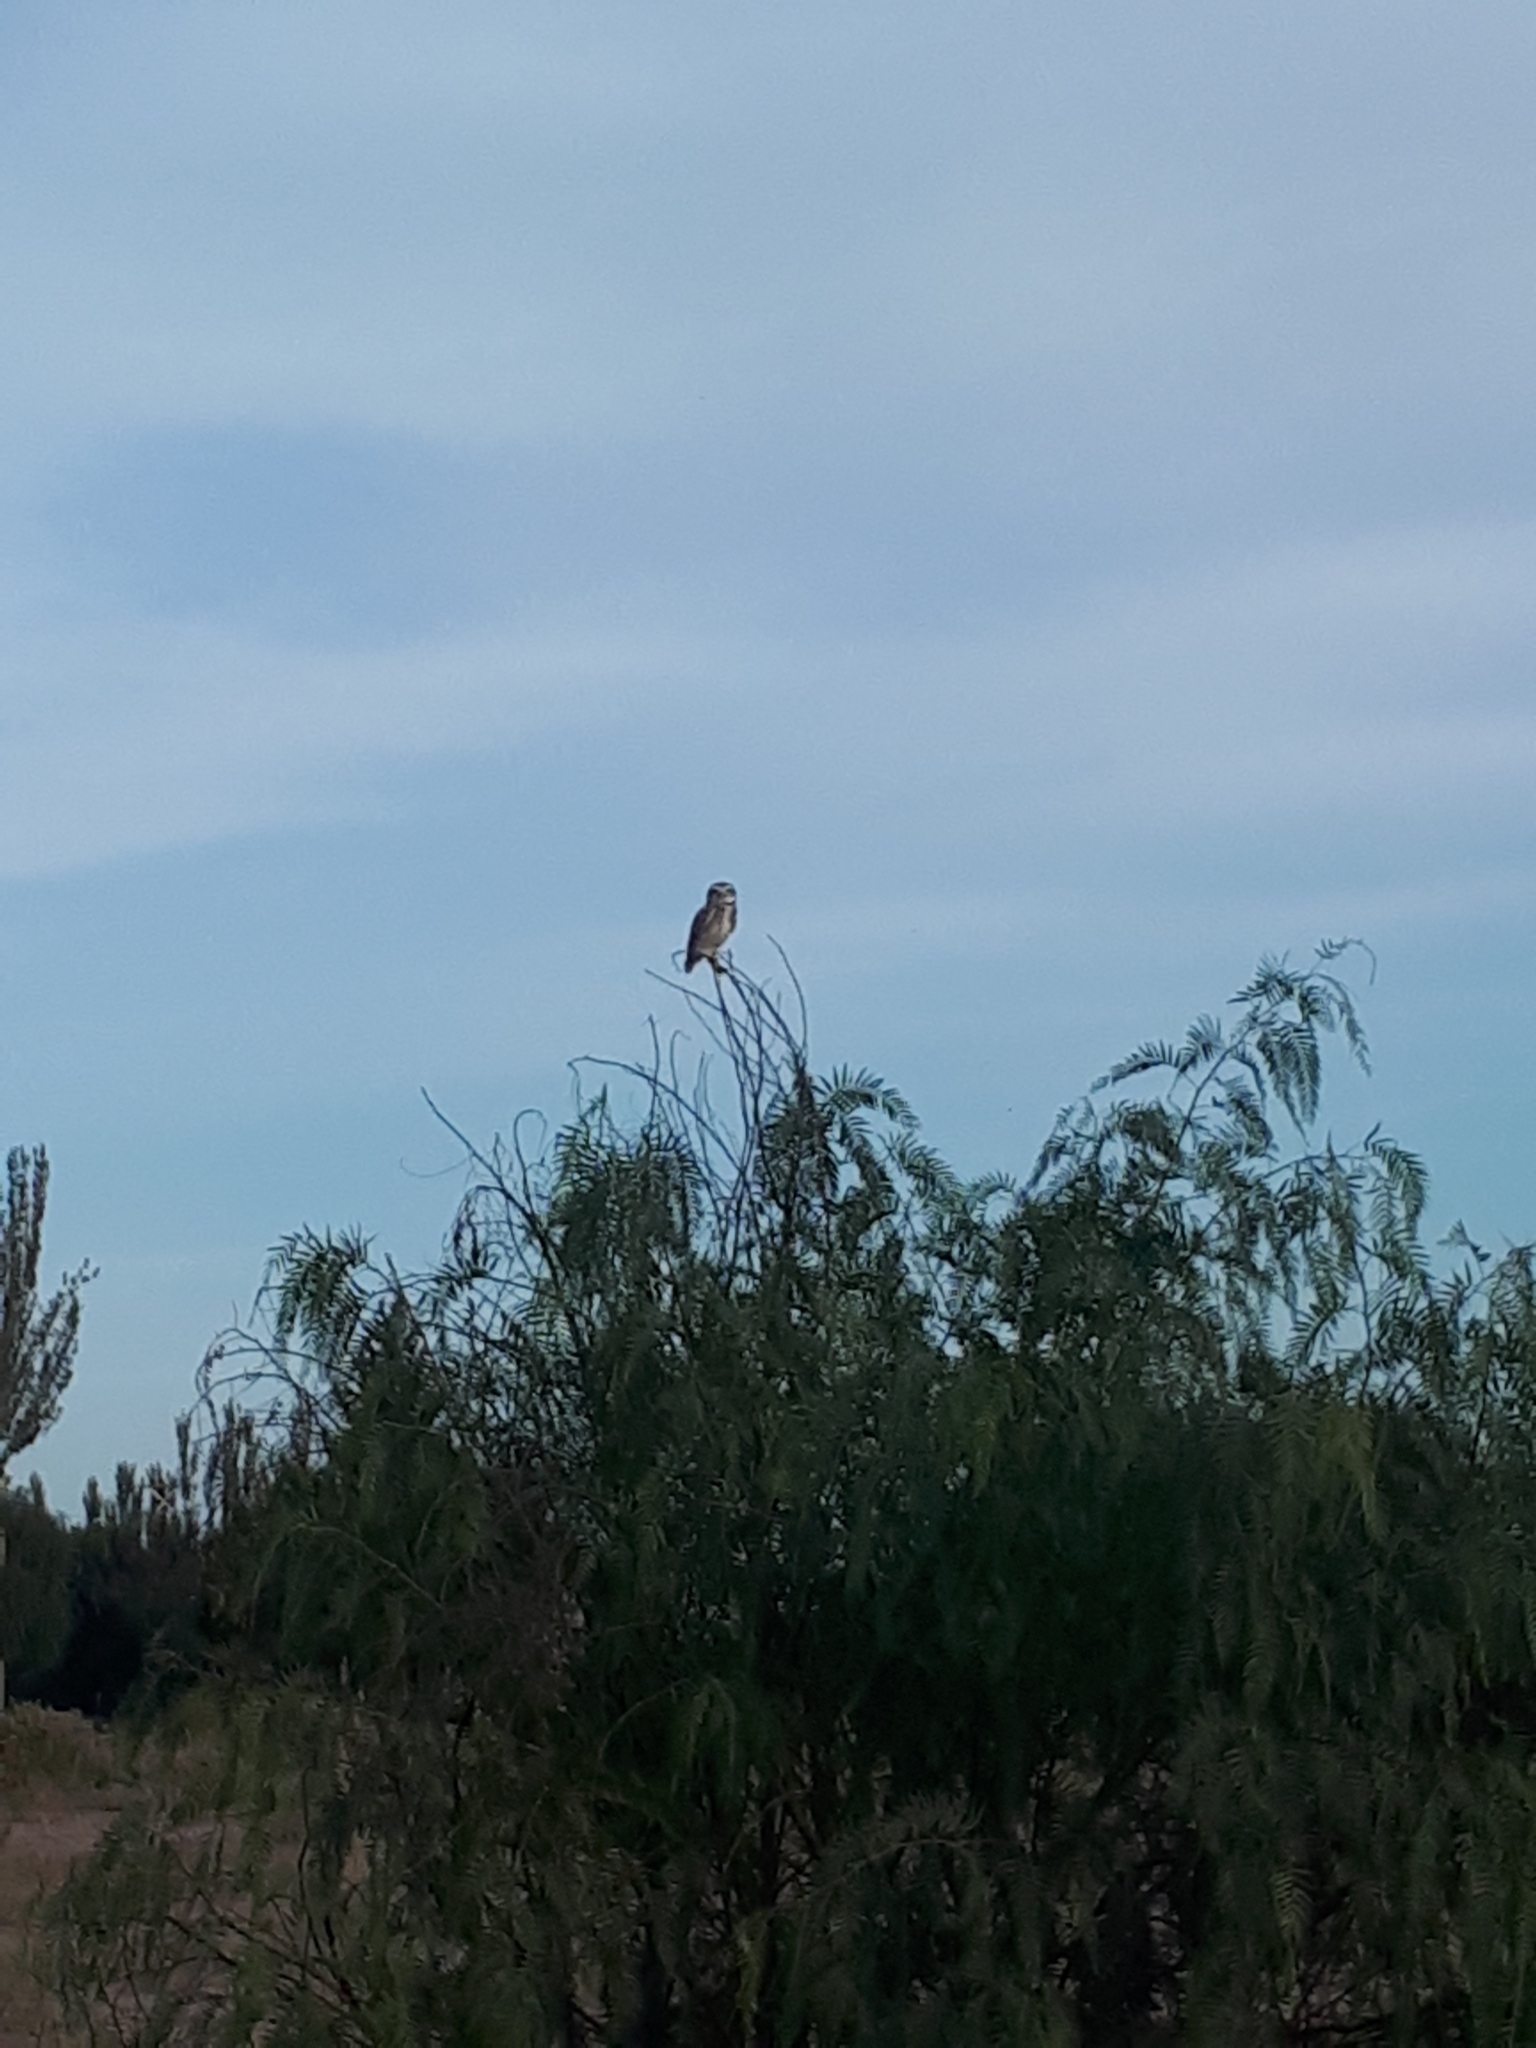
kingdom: Animalia
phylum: Chordata
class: Aves
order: Strigiformes
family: Strigidae
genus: Athene
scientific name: Athene cunicularia
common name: Burrowing owl
